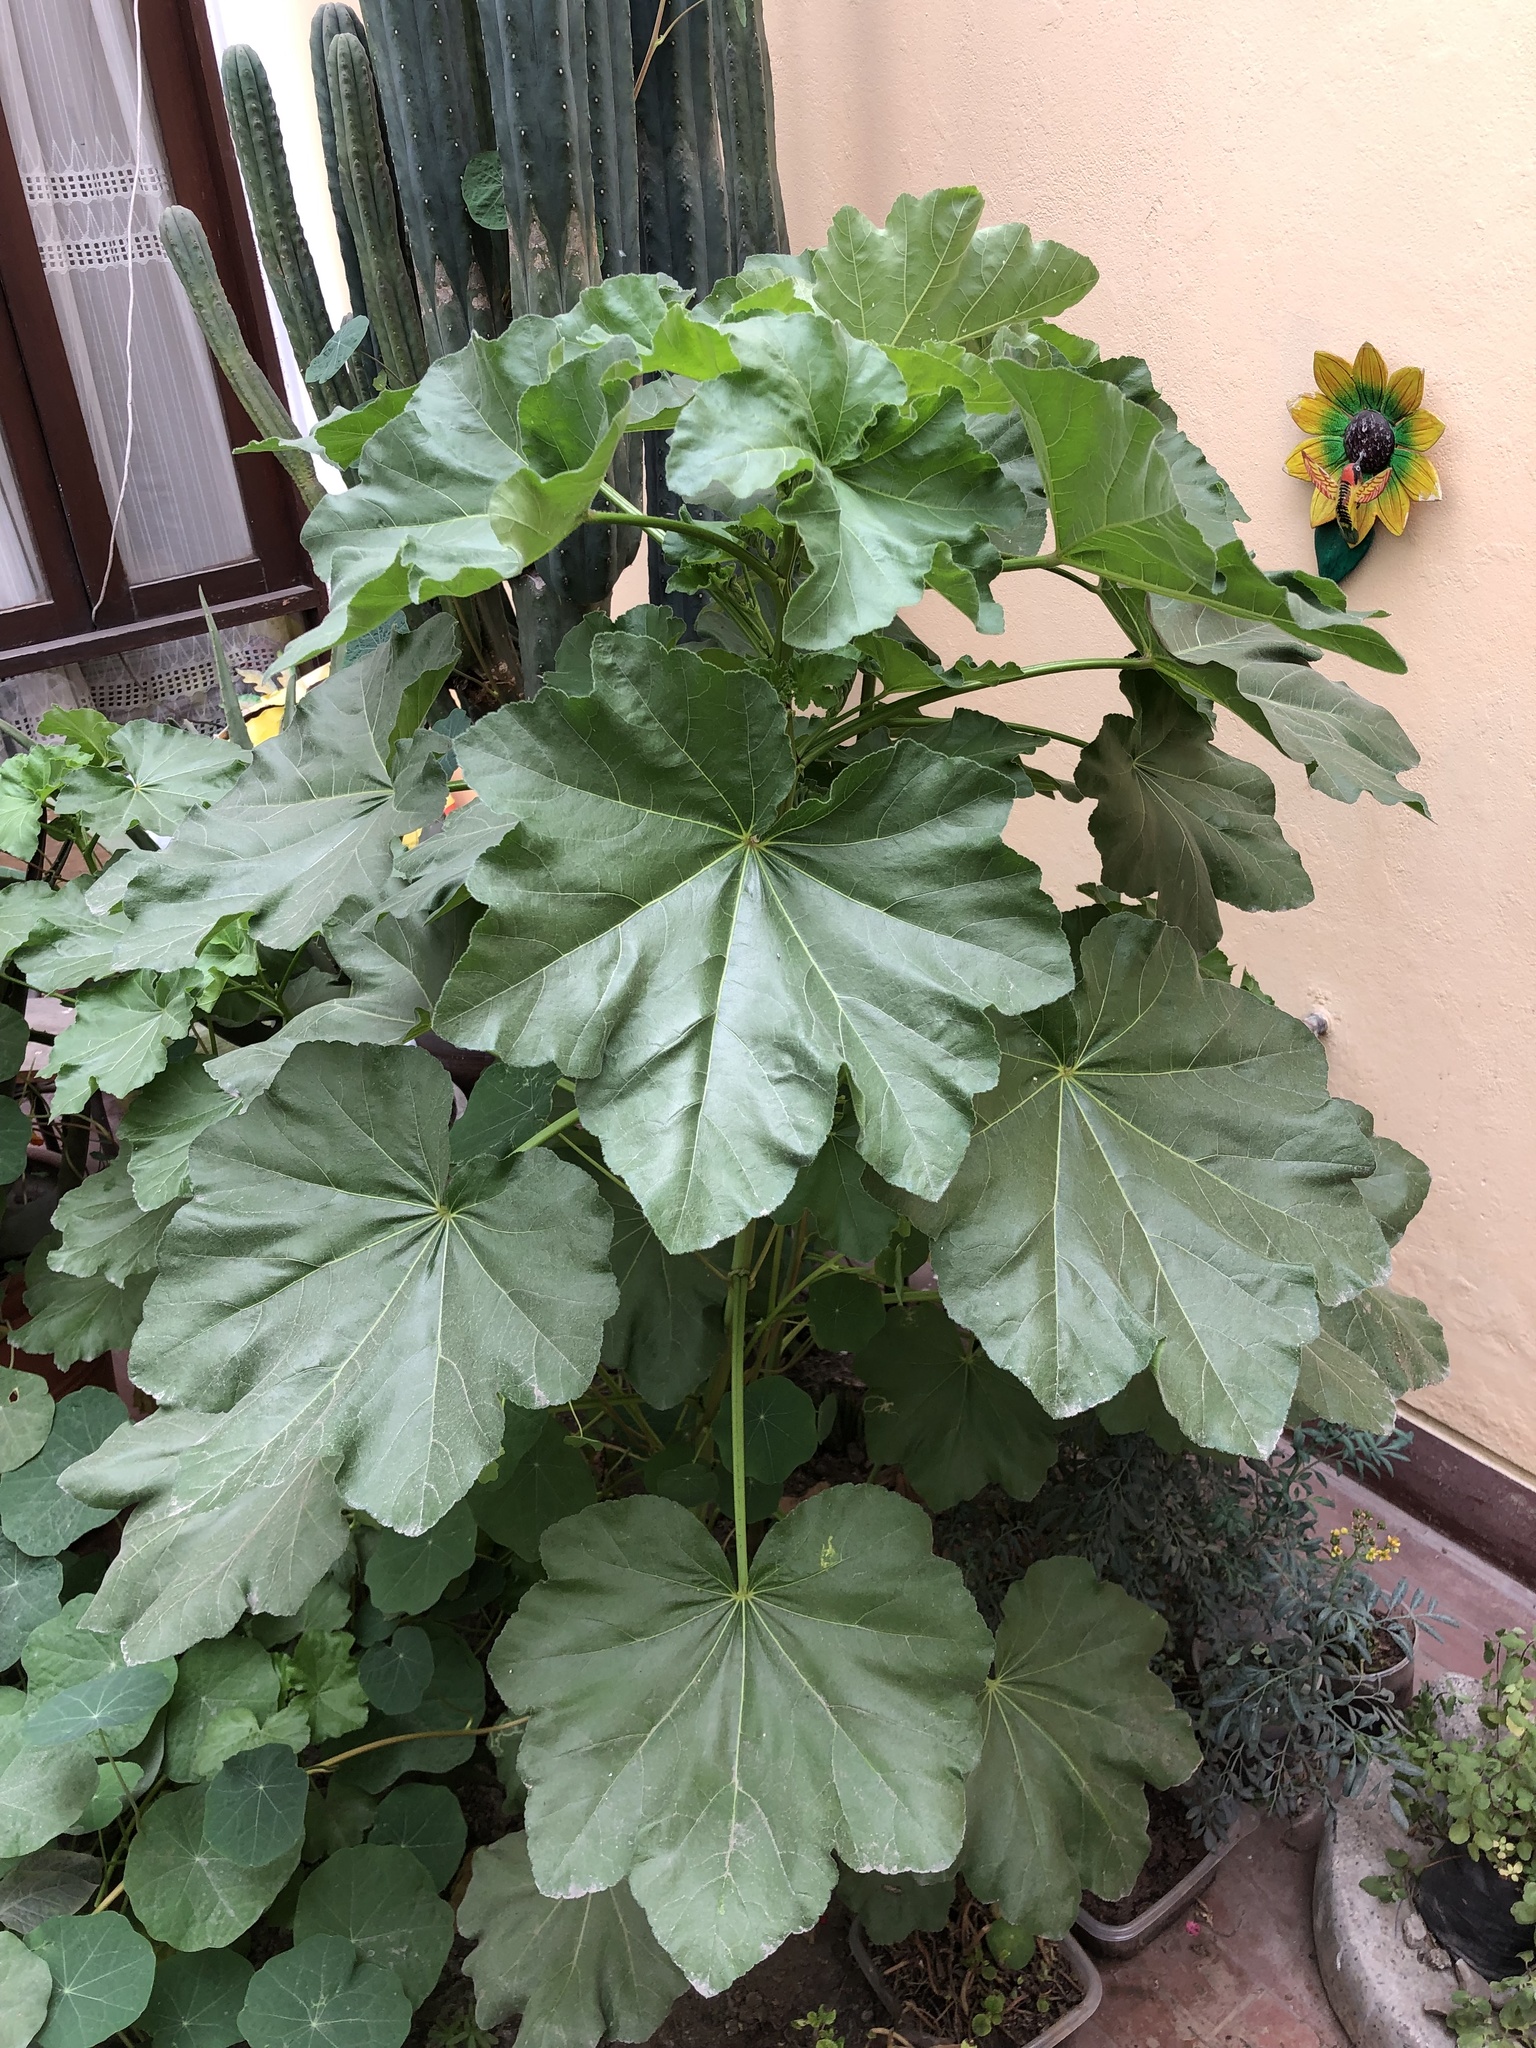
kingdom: Plantae
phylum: Tracheophyta
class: Magnoliopsida
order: Malvales
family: Malvaceae
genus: Malva
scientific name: Malva arborea
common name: Tree mallow
